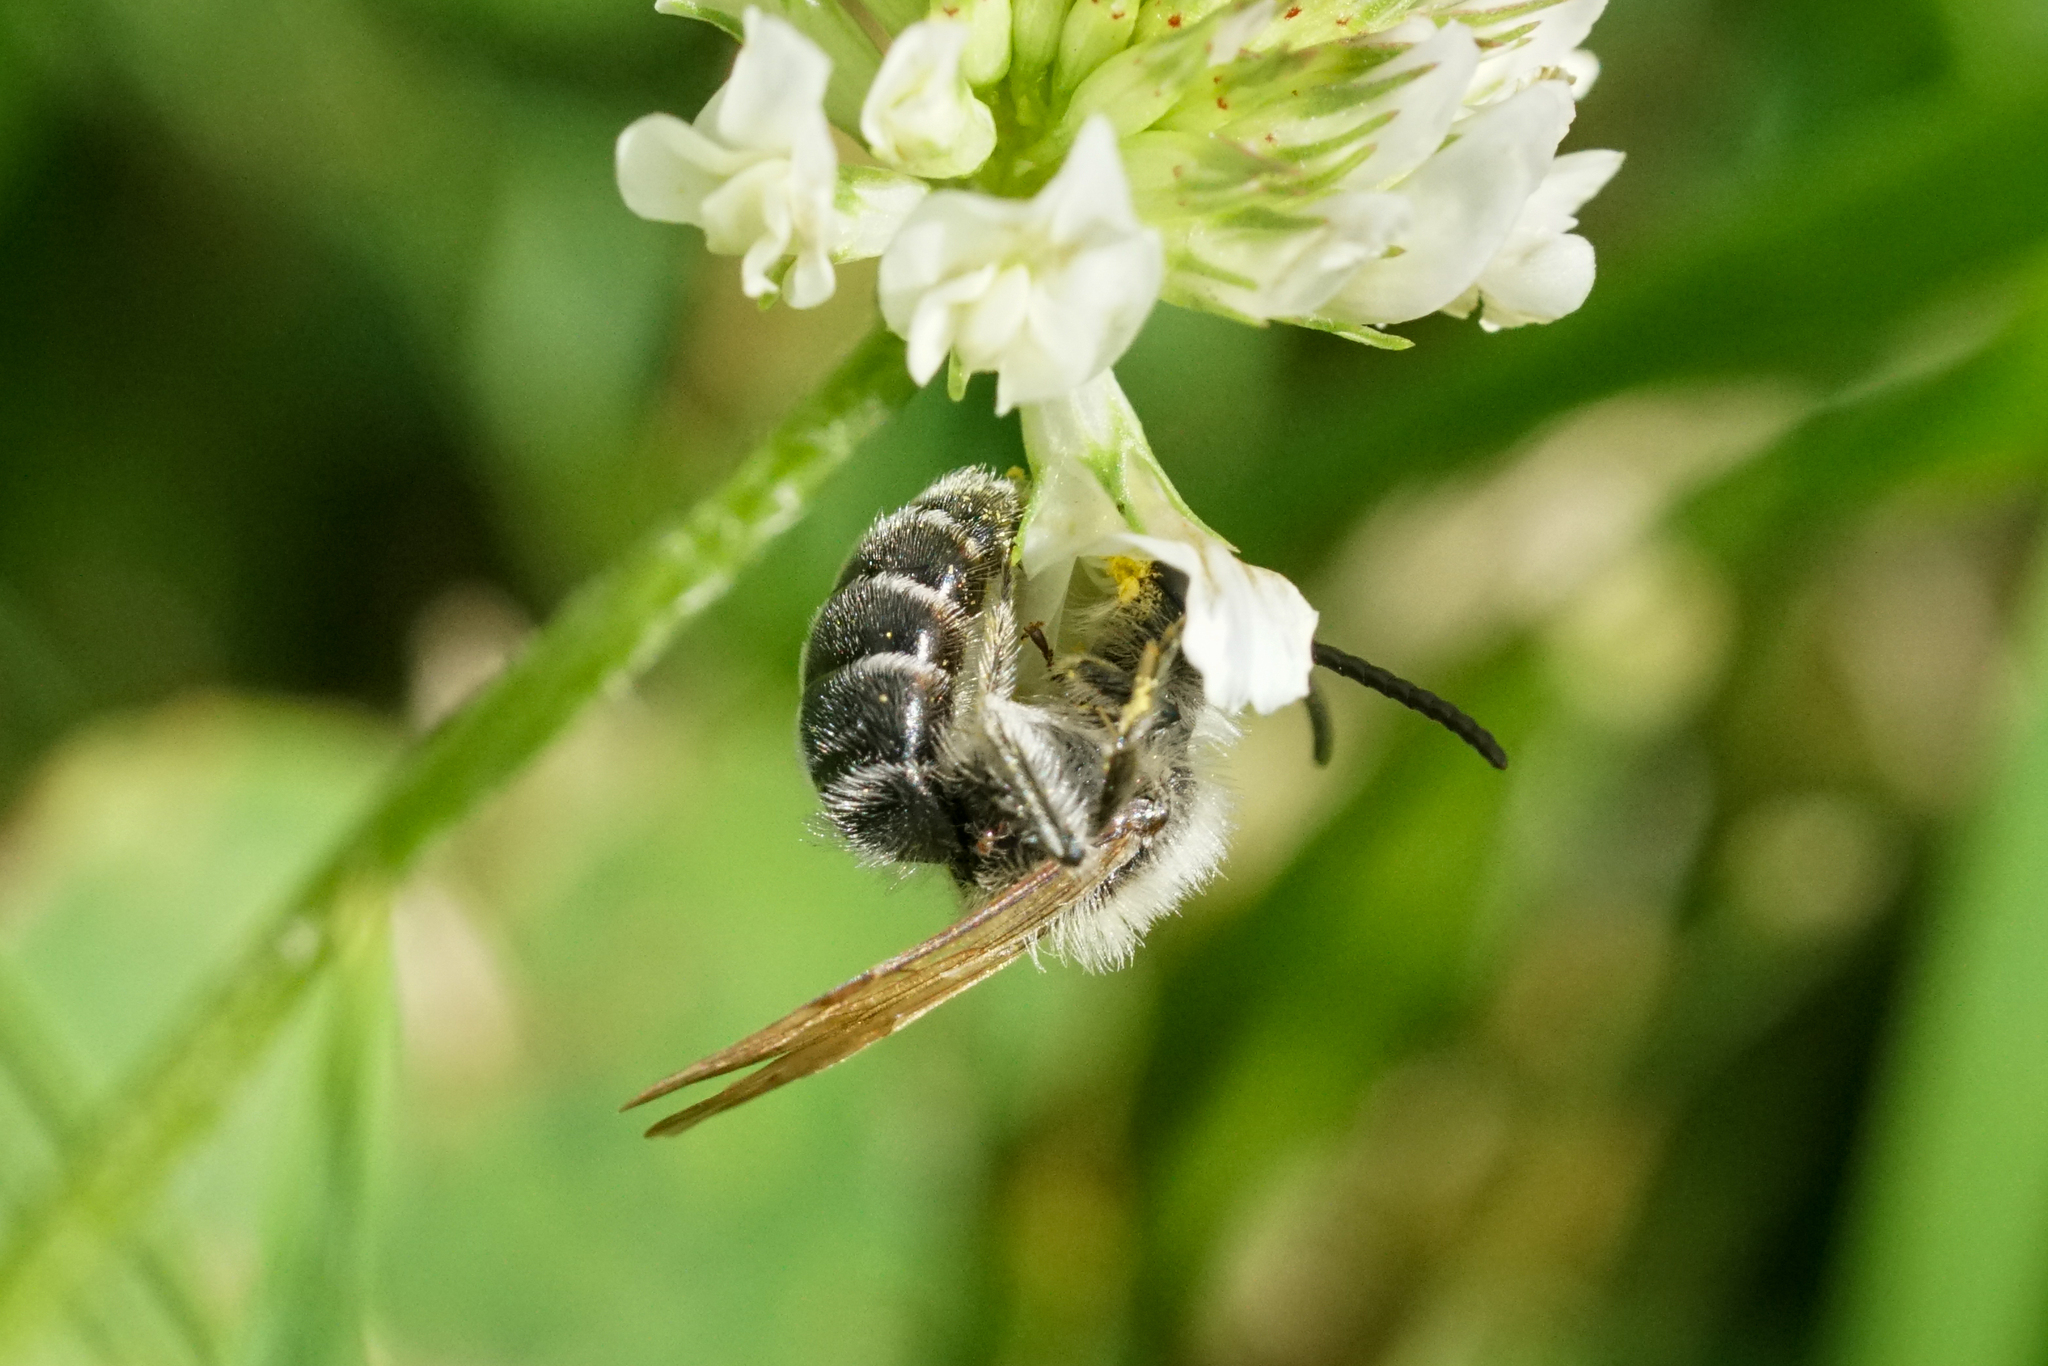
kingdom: Animalia
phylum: Arthropoda
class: Insecta
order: Hymenoptera
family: Andrenidae
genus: Andrena
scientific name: Andrena wilkella
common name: Wilke's mining bee
